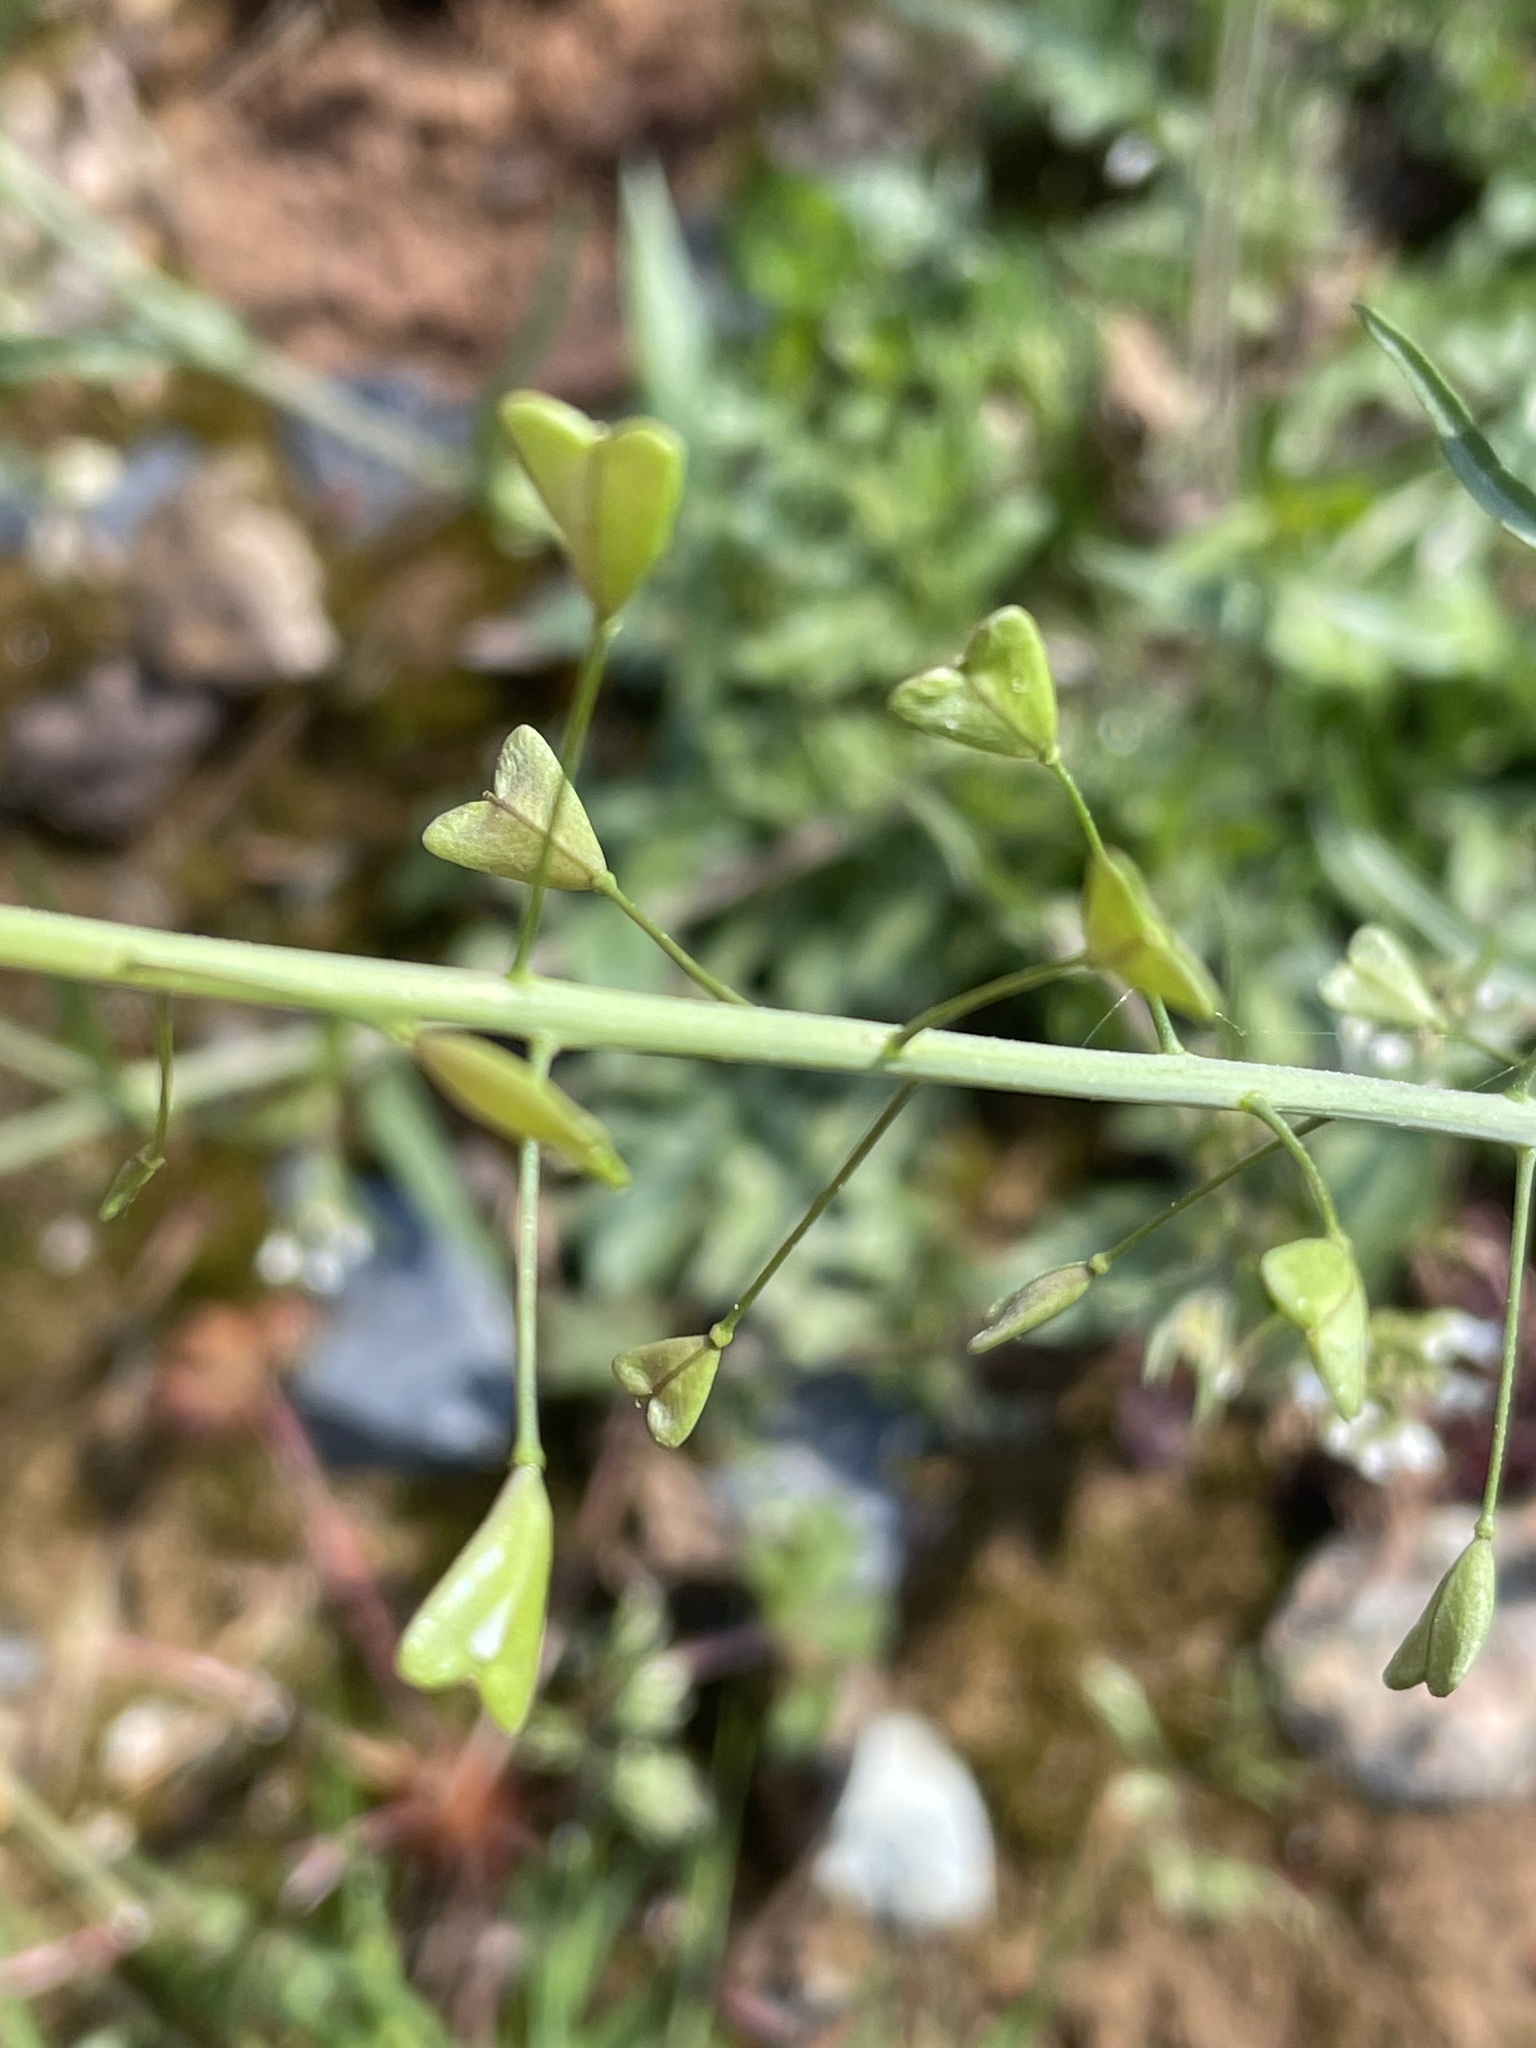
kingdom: Plantae
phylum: Tracheophyta
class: Magnoliopsida
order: Brassicales
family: Brassicaceae
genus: Capsella
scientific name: Capsella bursa-pastoris
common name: Shepherd's purse
